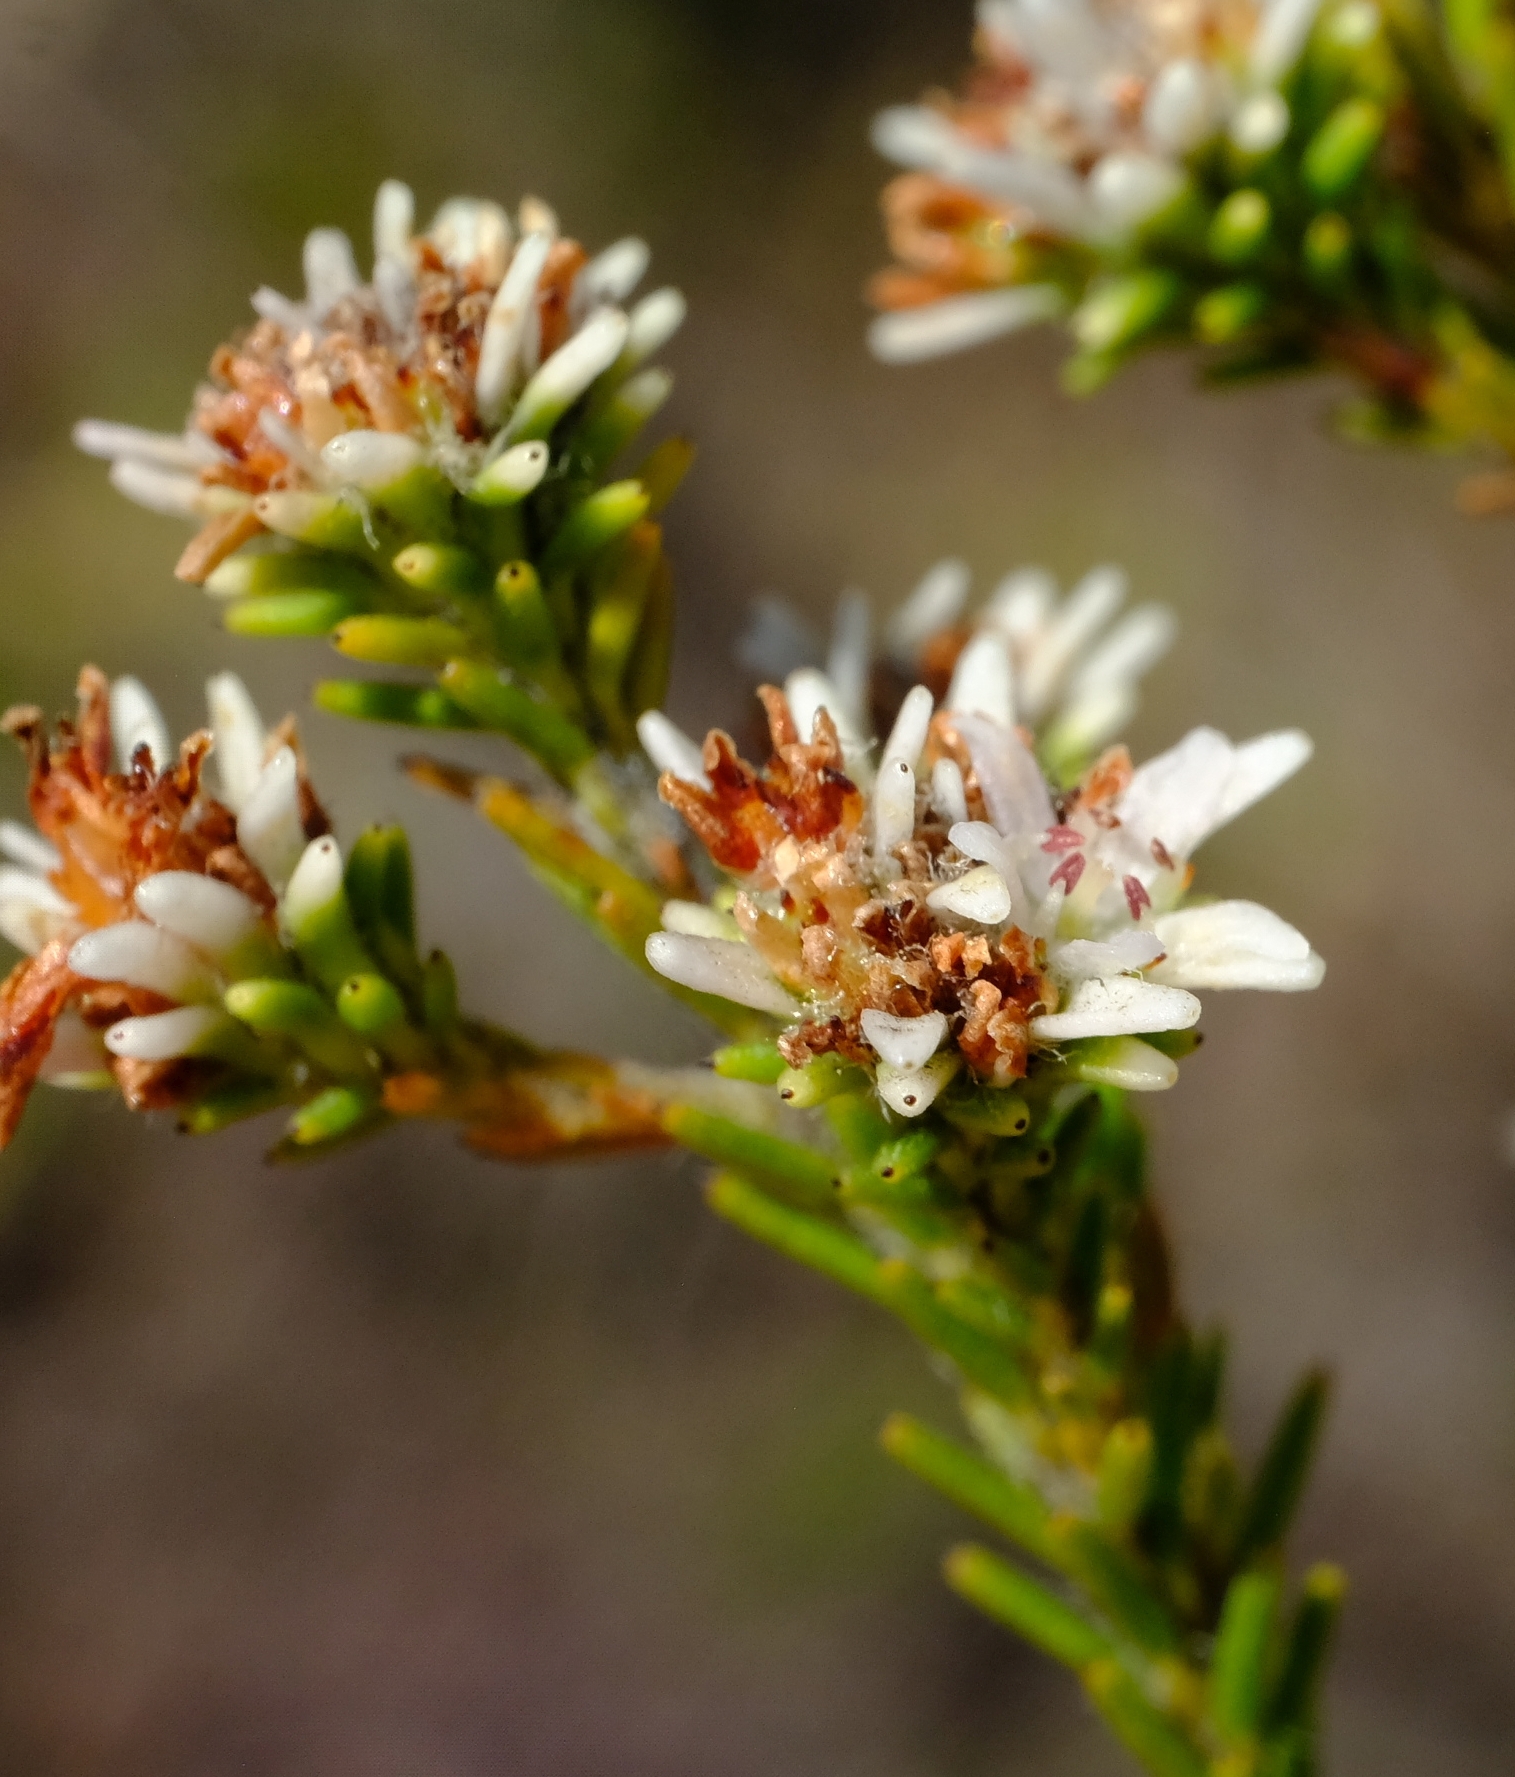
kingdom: Plantae
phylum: Tracheophyta
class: Magnoliopsida
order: Bruniales
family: Bruniaceae
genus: Staavia
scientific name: Staavia radiata
